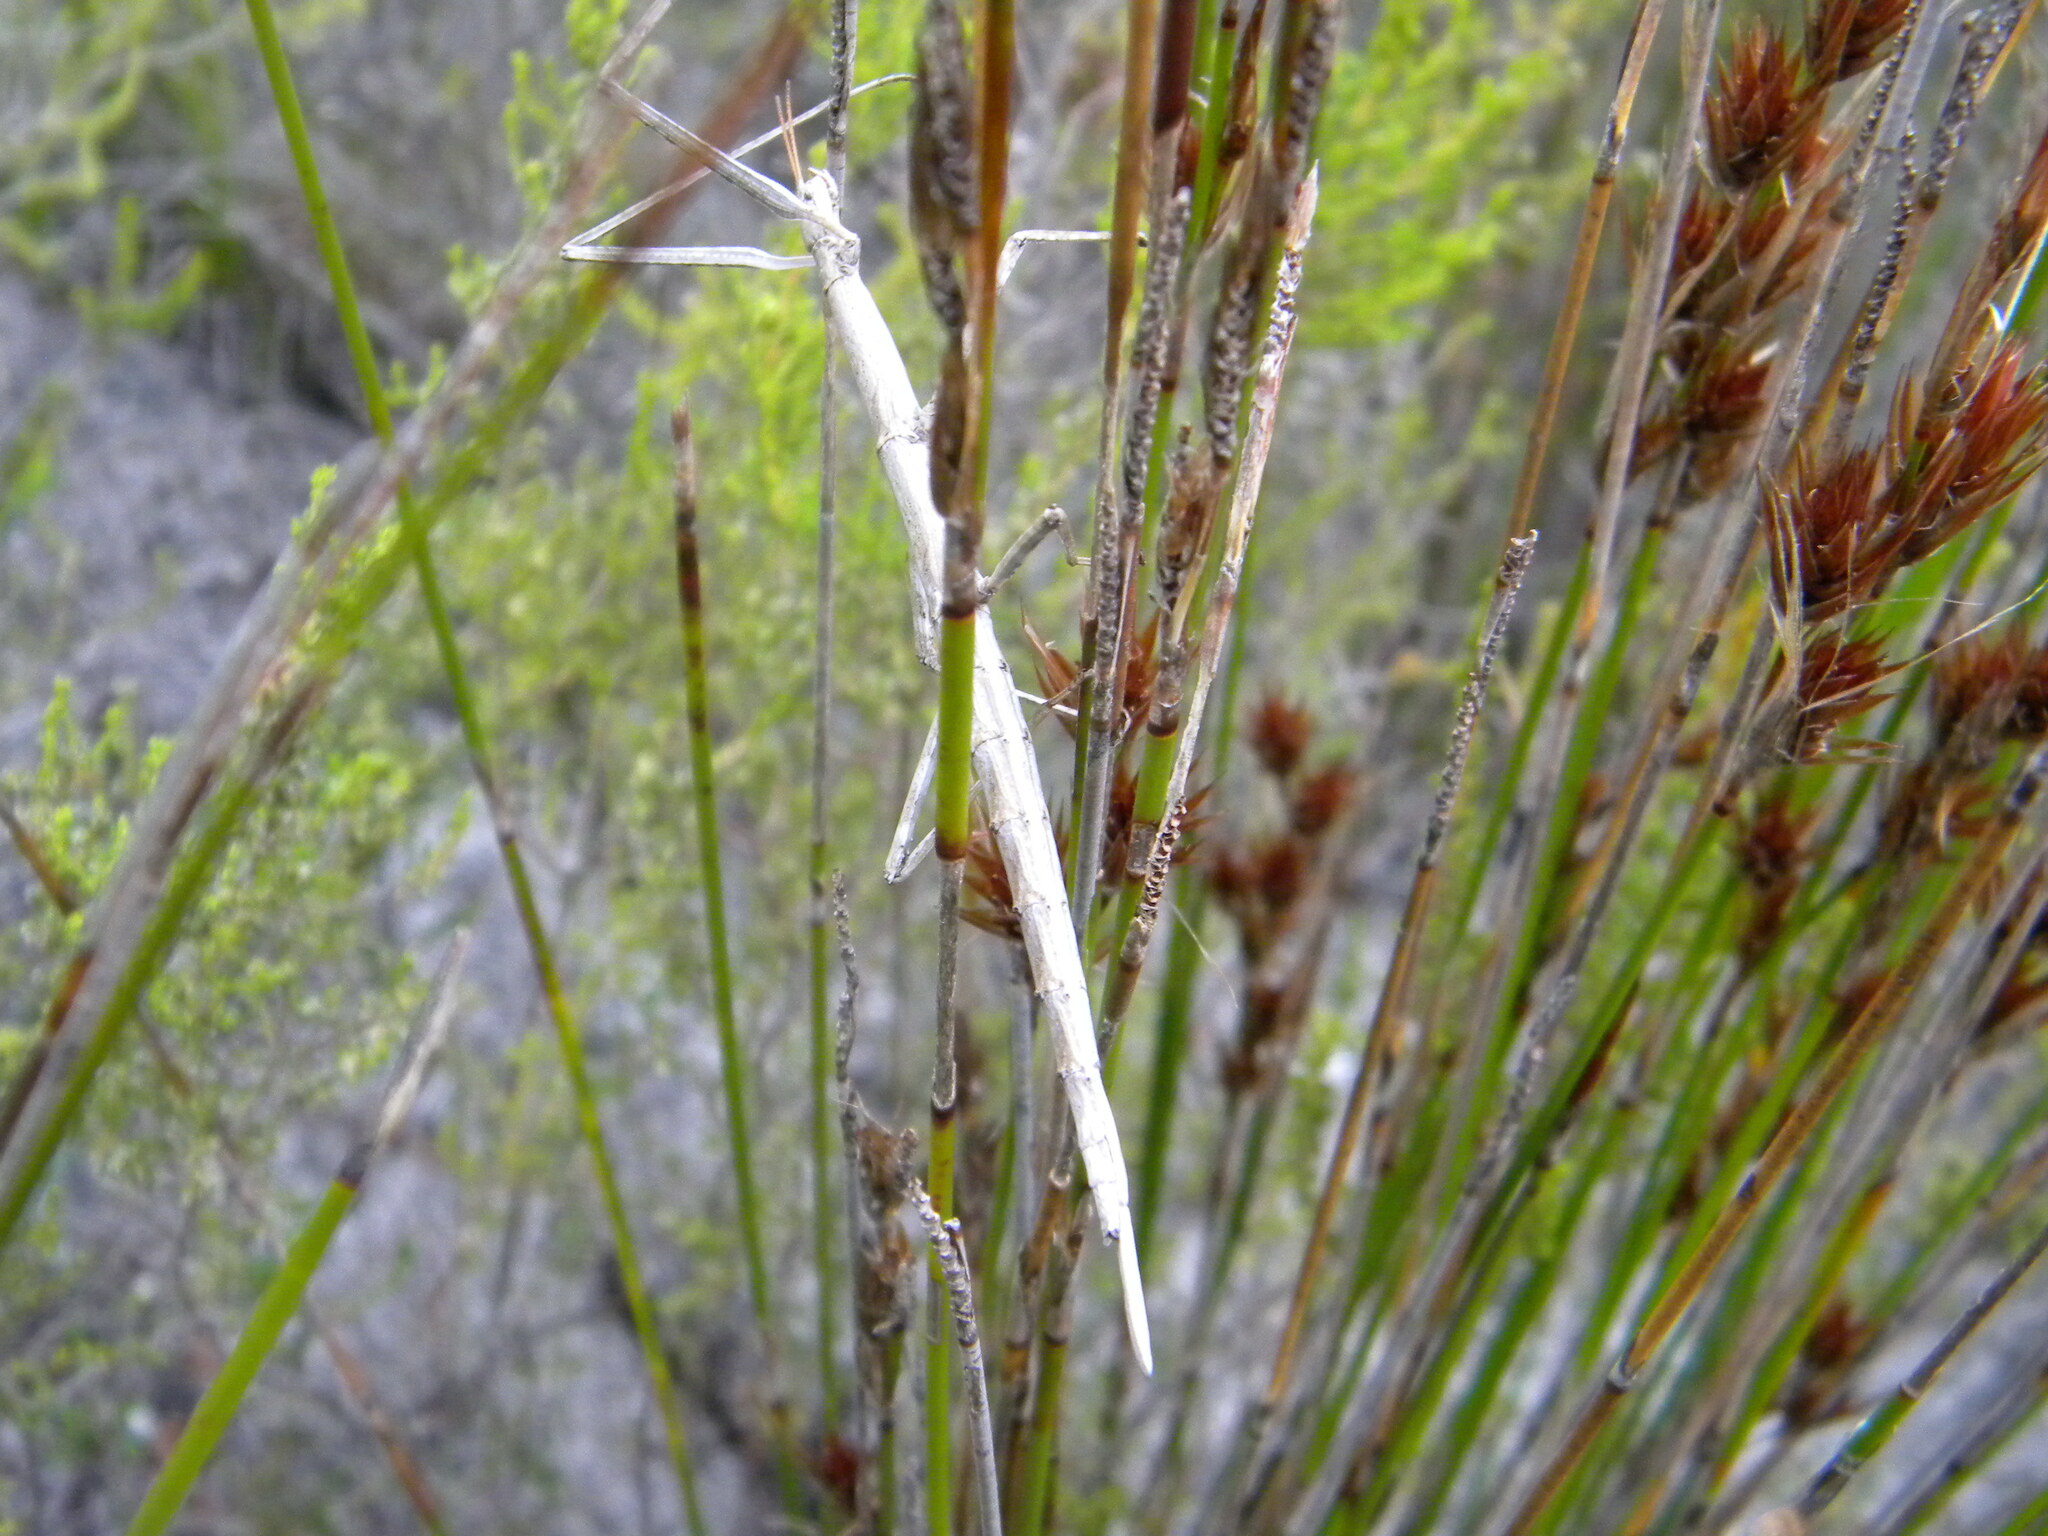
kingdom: Animalia
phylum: Arthropoda
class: Insecta
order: Phasmida
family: Bacillidae
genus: Phalces
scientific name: Phalces brevis
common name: Cape stick insect
